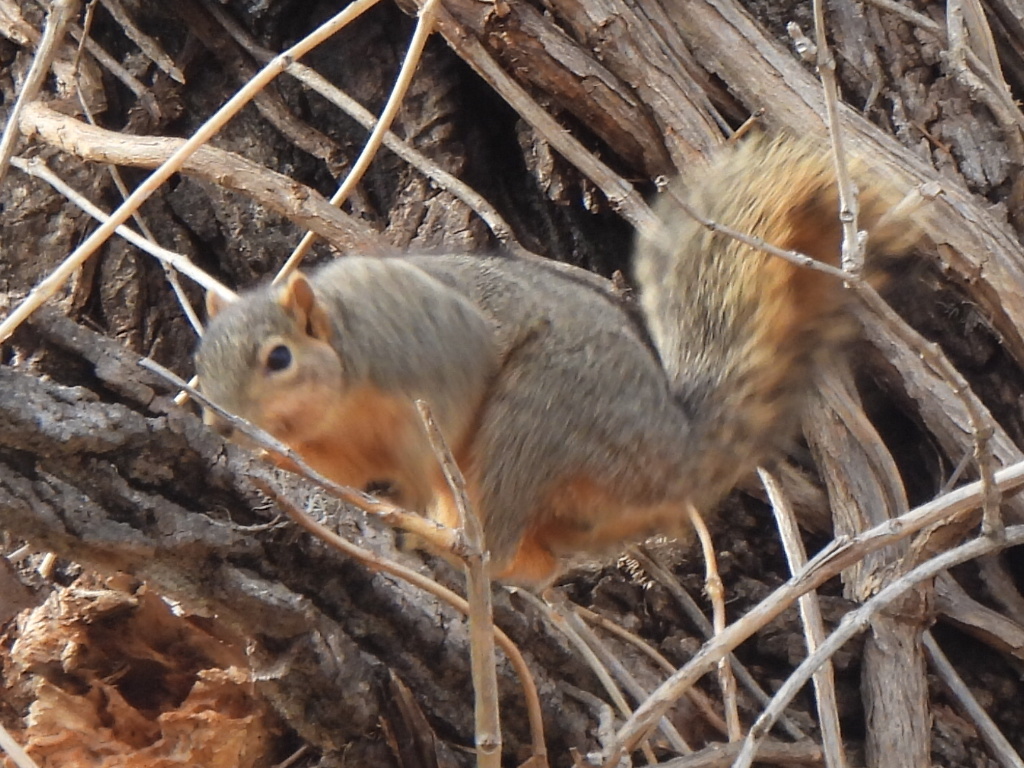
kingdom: Animalia
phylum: Chordata
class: Mammalia
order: Rodentia
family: Sciuridae
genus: Sciurus
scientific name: Sciurus niger
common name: Fox squirrel
